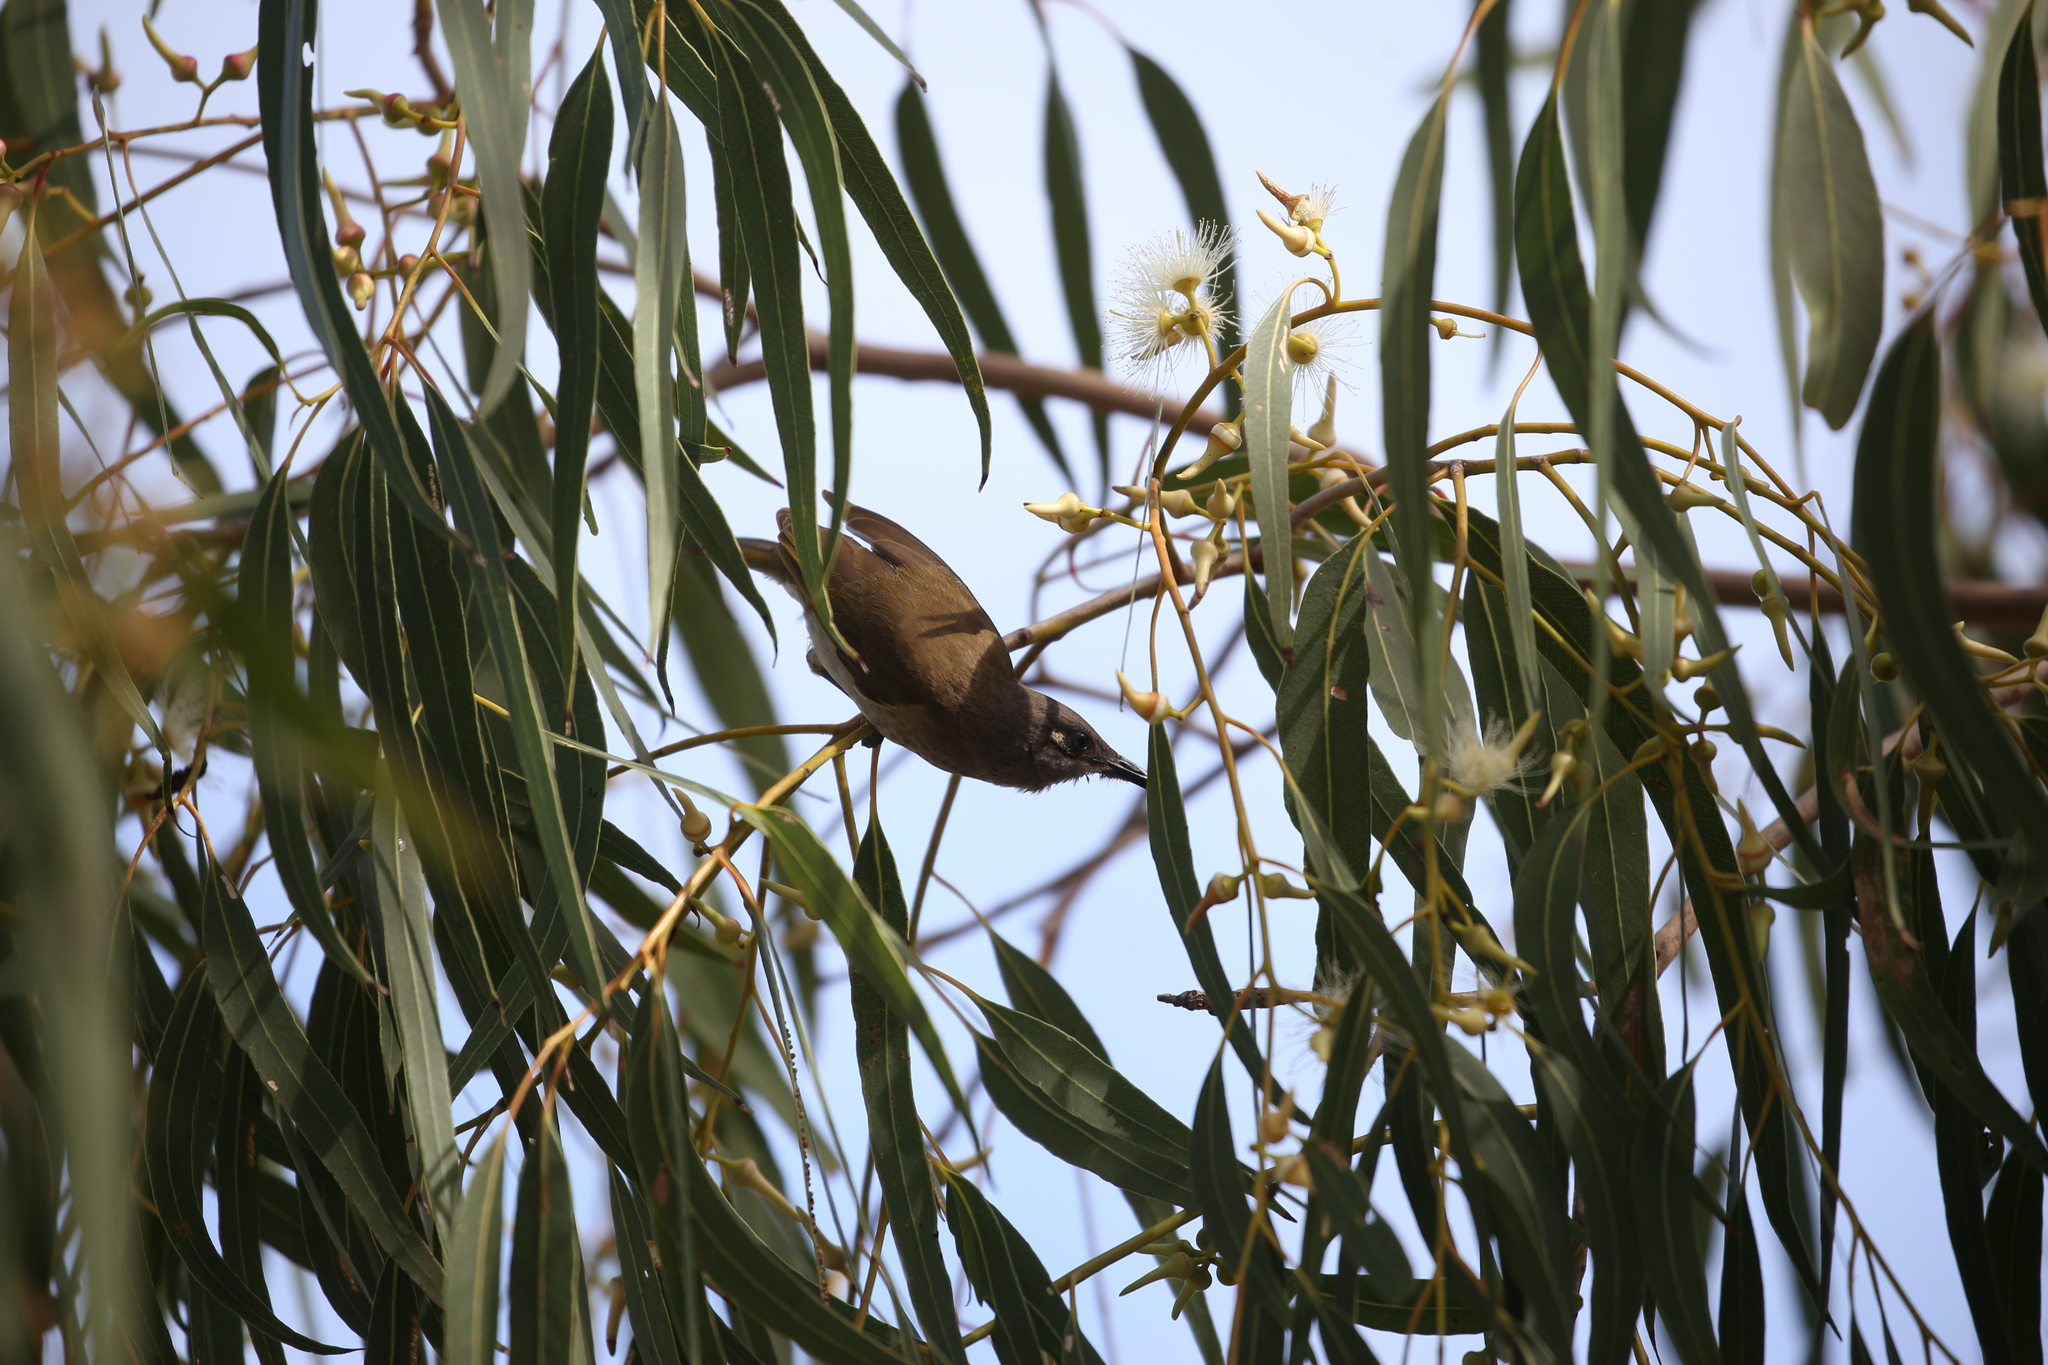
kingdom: Animalia
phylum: Chordata
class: Aves
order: Passeriformes
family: Meliphagidae
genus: Lichmera
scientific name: Lichmera indistincta
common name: Brown honeyeater
